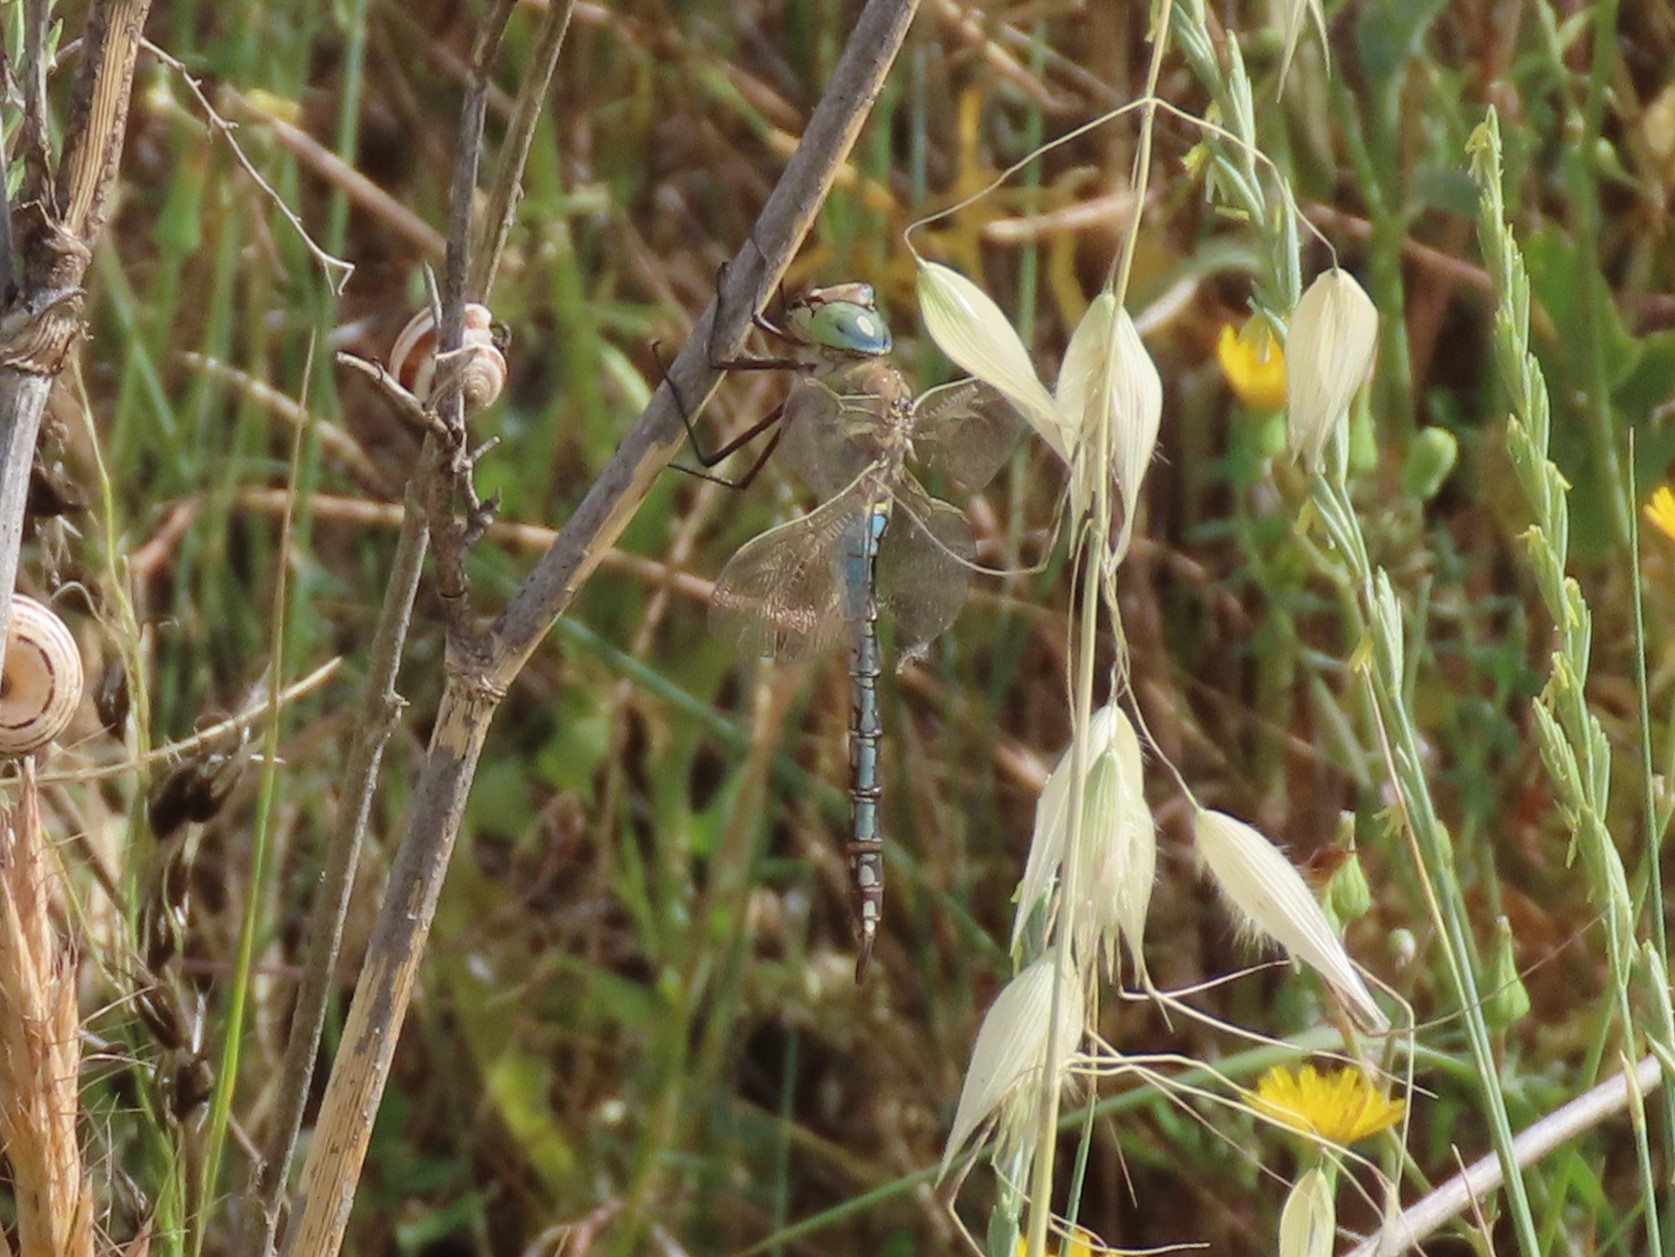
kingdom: Animalia
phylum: Arthropoda
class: Insecta
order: Odonata
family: Aeshnidae
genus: Anax
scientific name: Anax parthenope
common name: Lesser emperor
